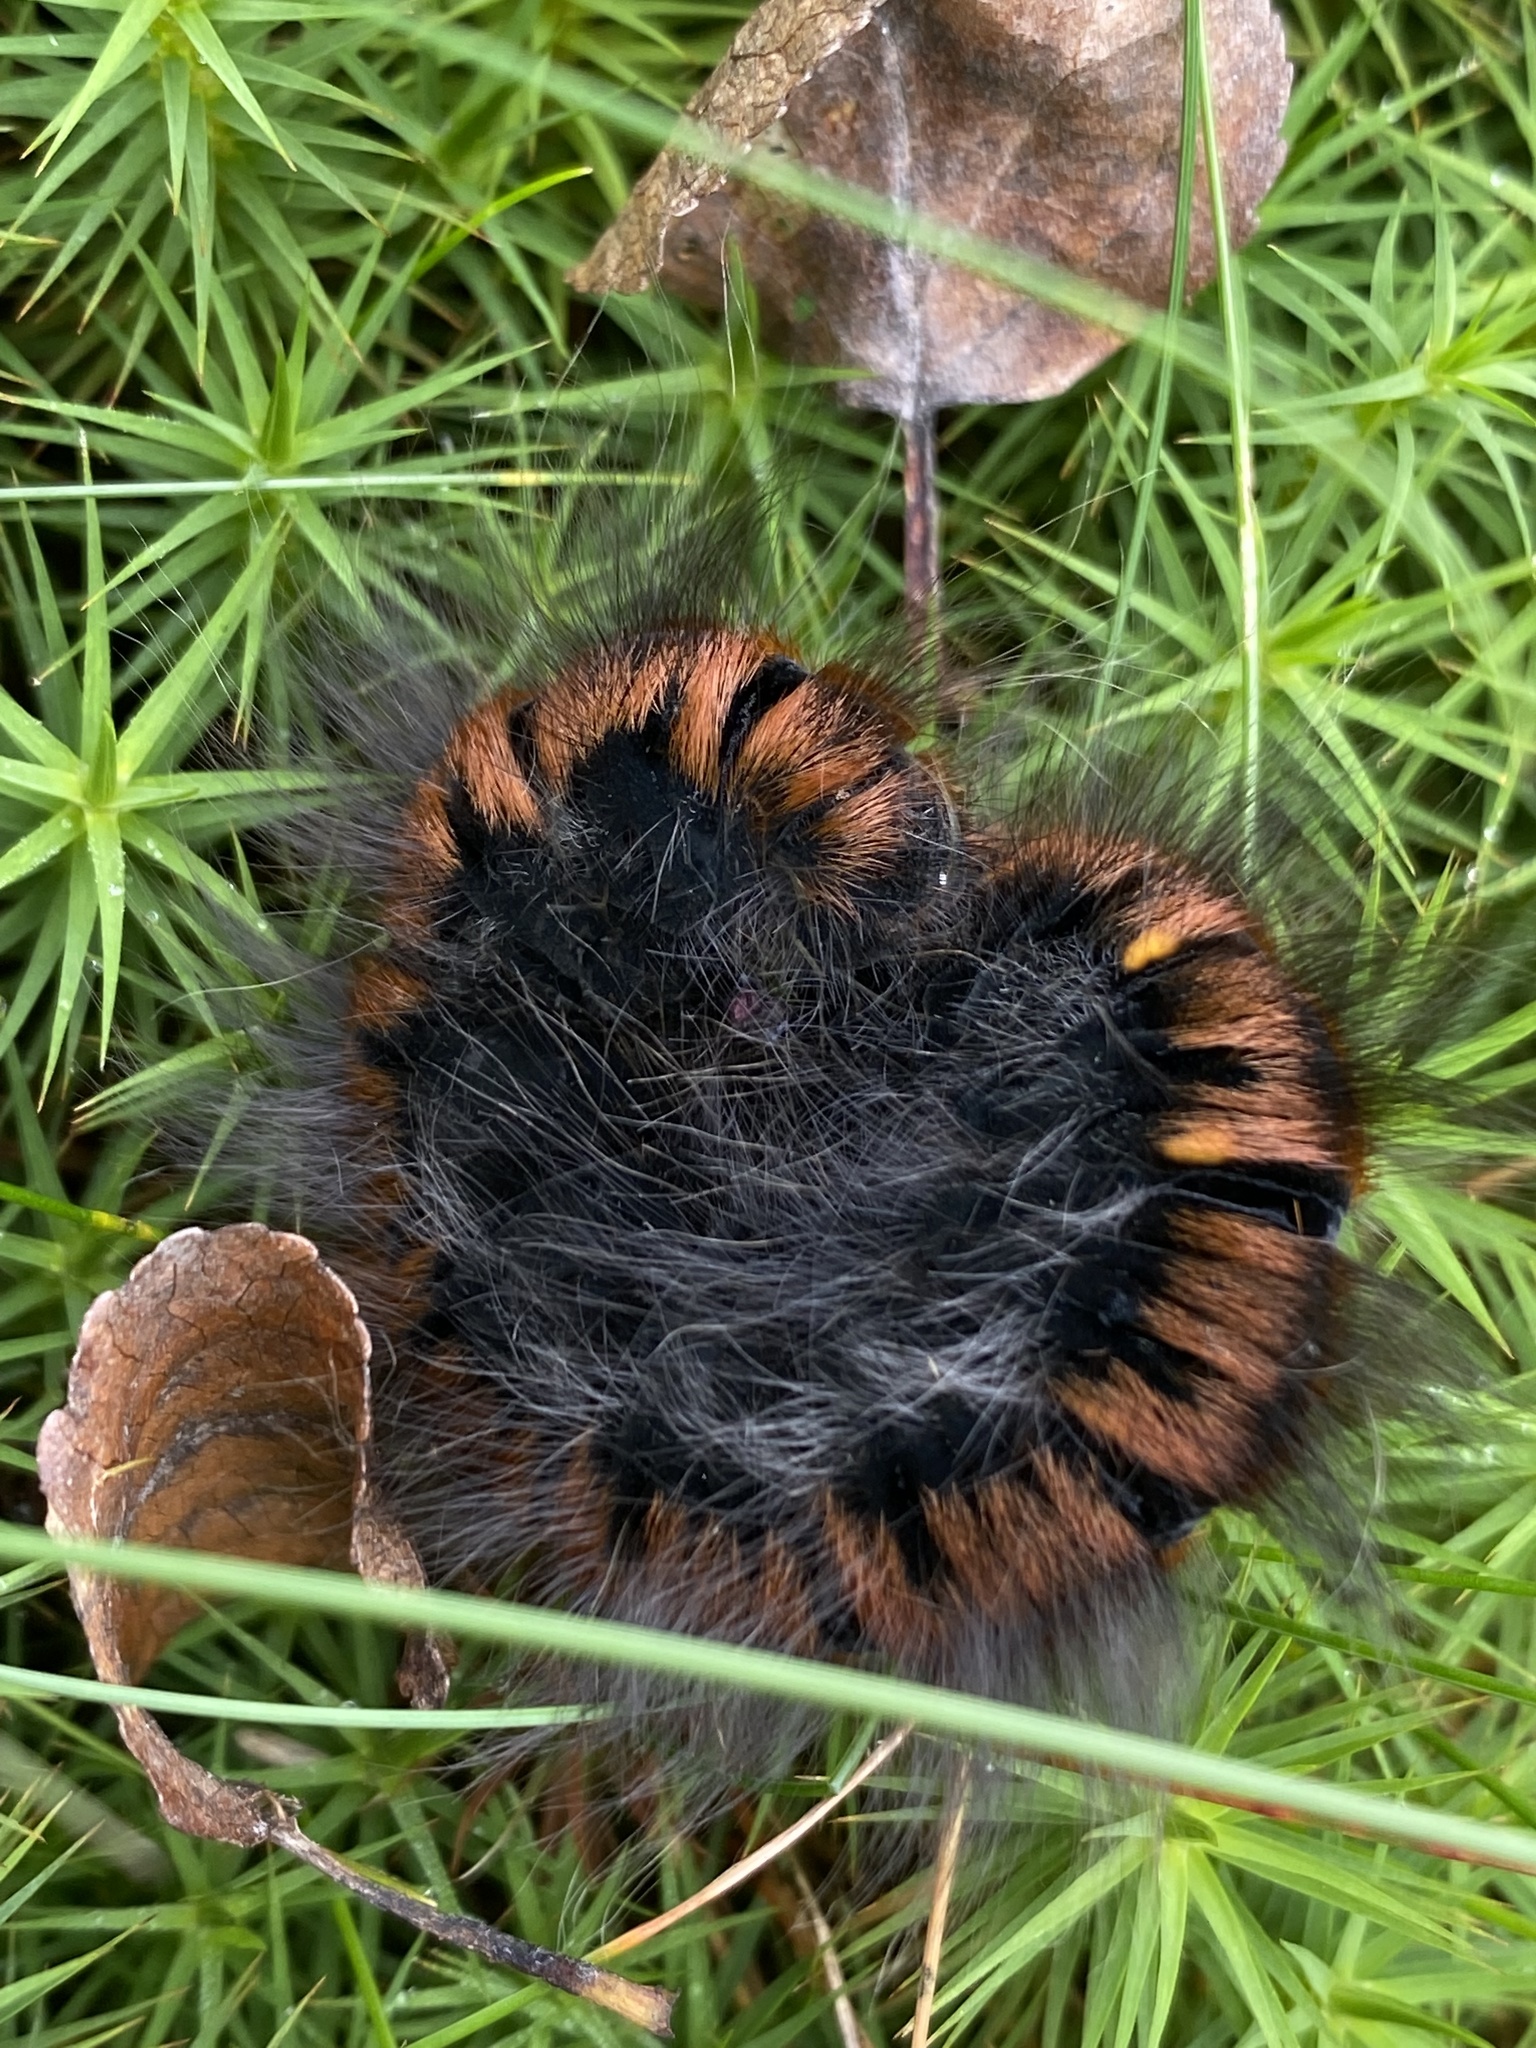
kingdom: Animalia
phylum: Arthropoda
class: Insecta
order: Lepidoptera
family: Lasiocampidae
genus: Macrothylacia
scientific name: Macrothylacia rubi
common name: Fox moth
